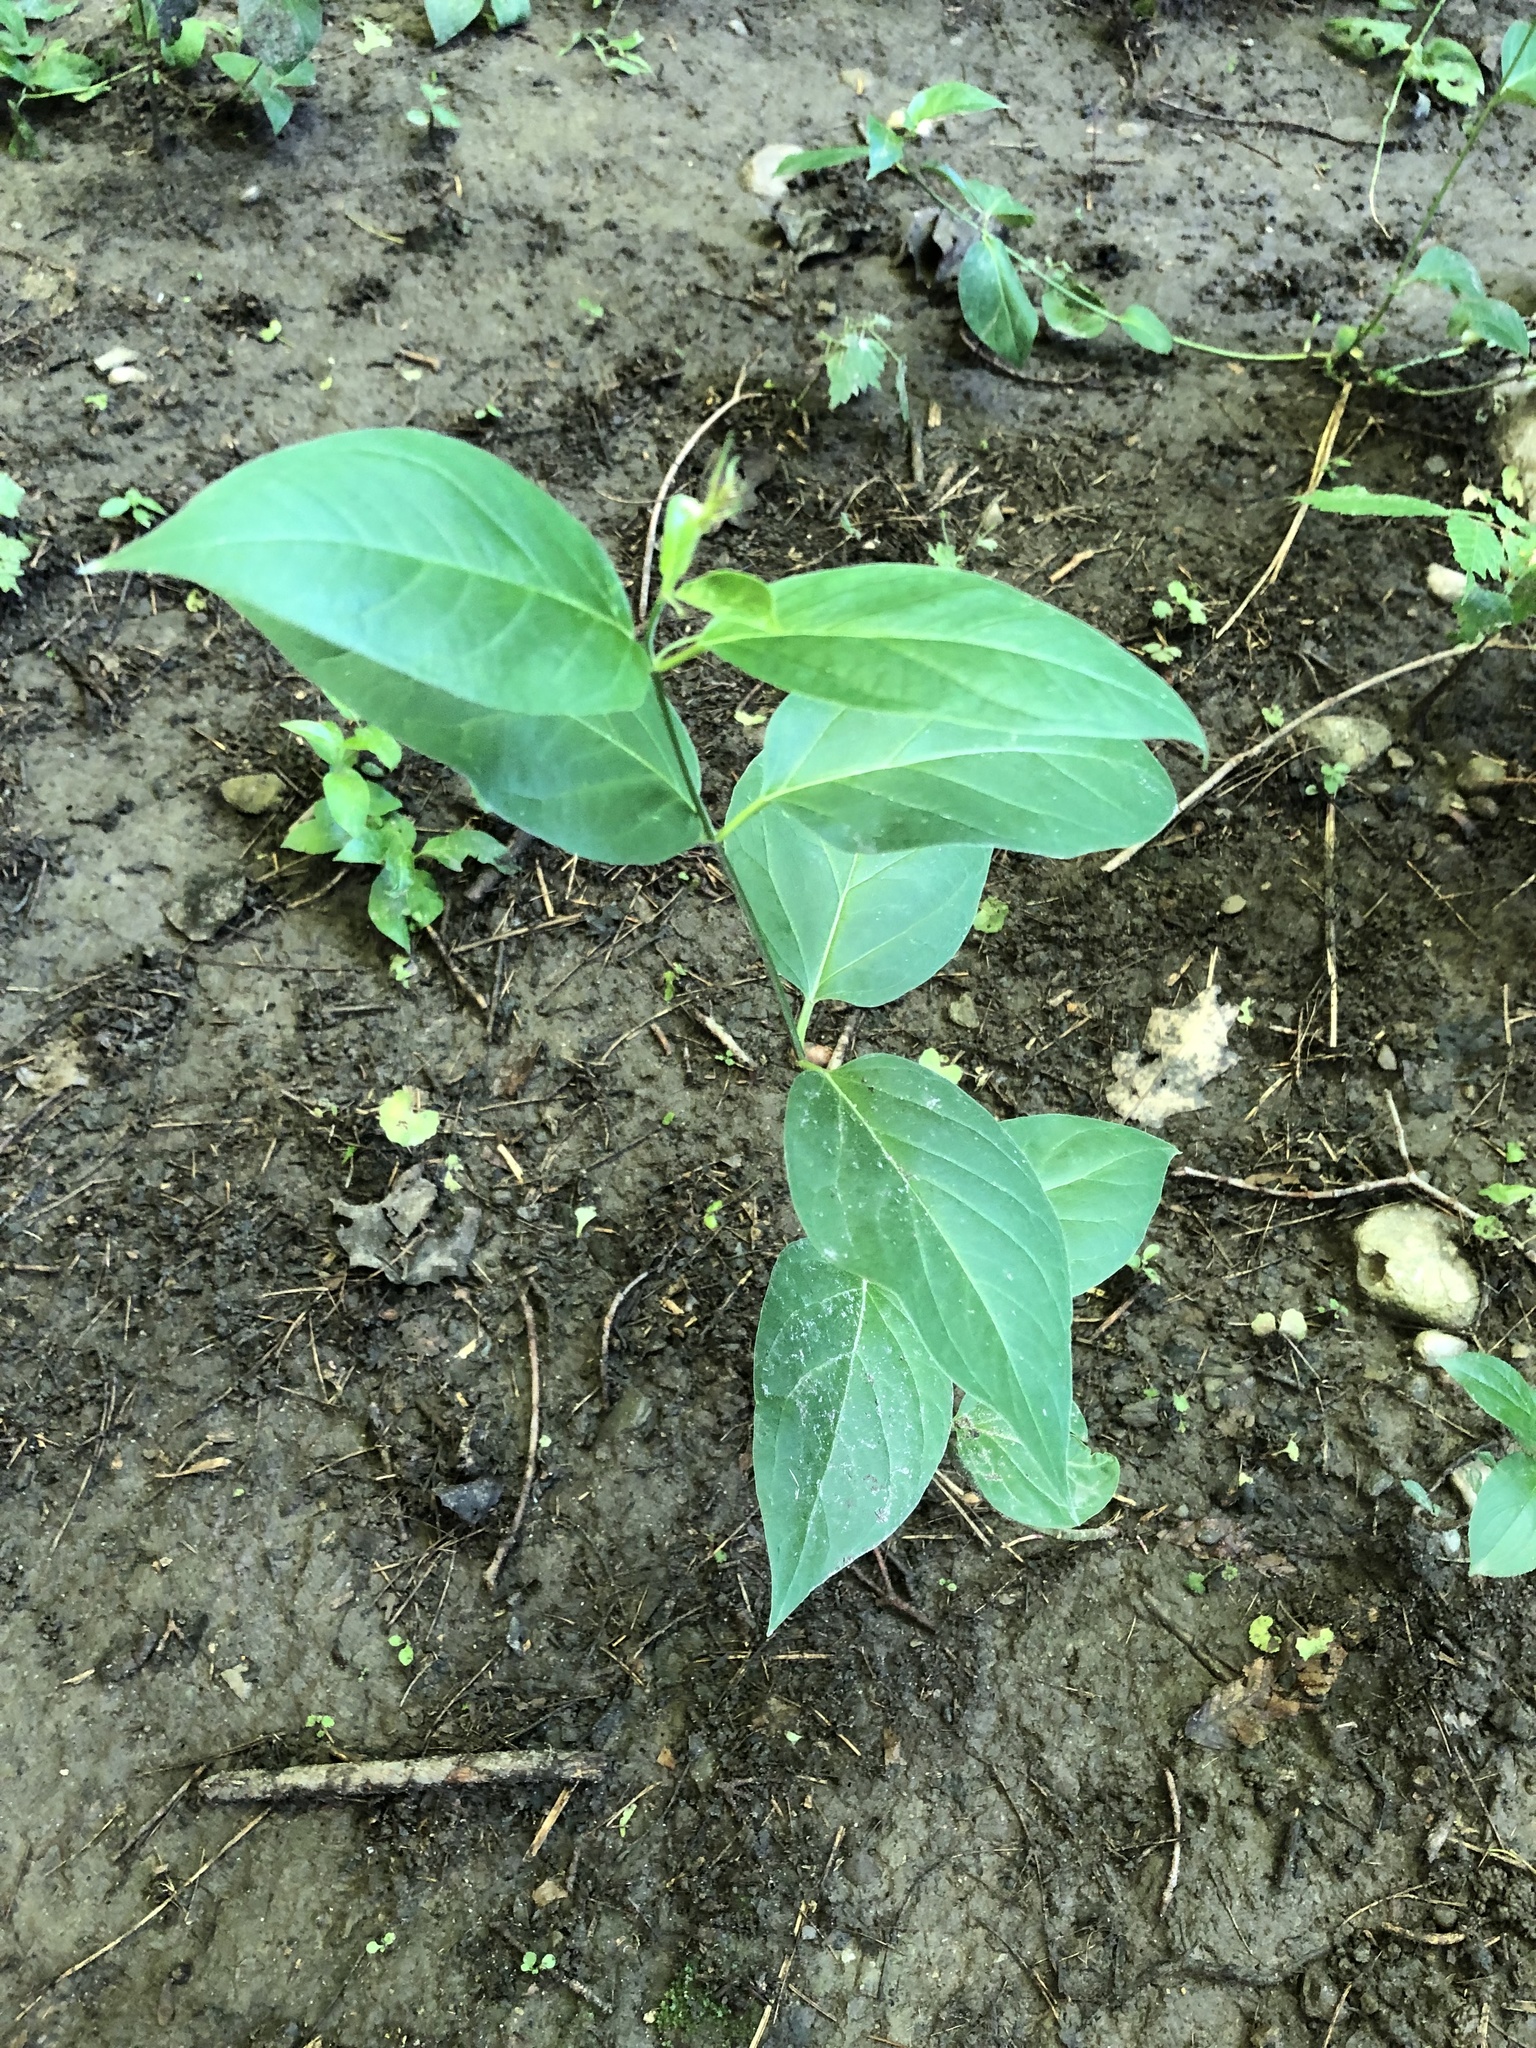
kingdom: Plantae
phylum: Tracheophyta
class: Magnoliopsida
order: Gentianales
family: Apocynaceae
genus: Vincetoxicum
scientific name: Vincetoxicum rossicum
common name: Dog-strangling vine
